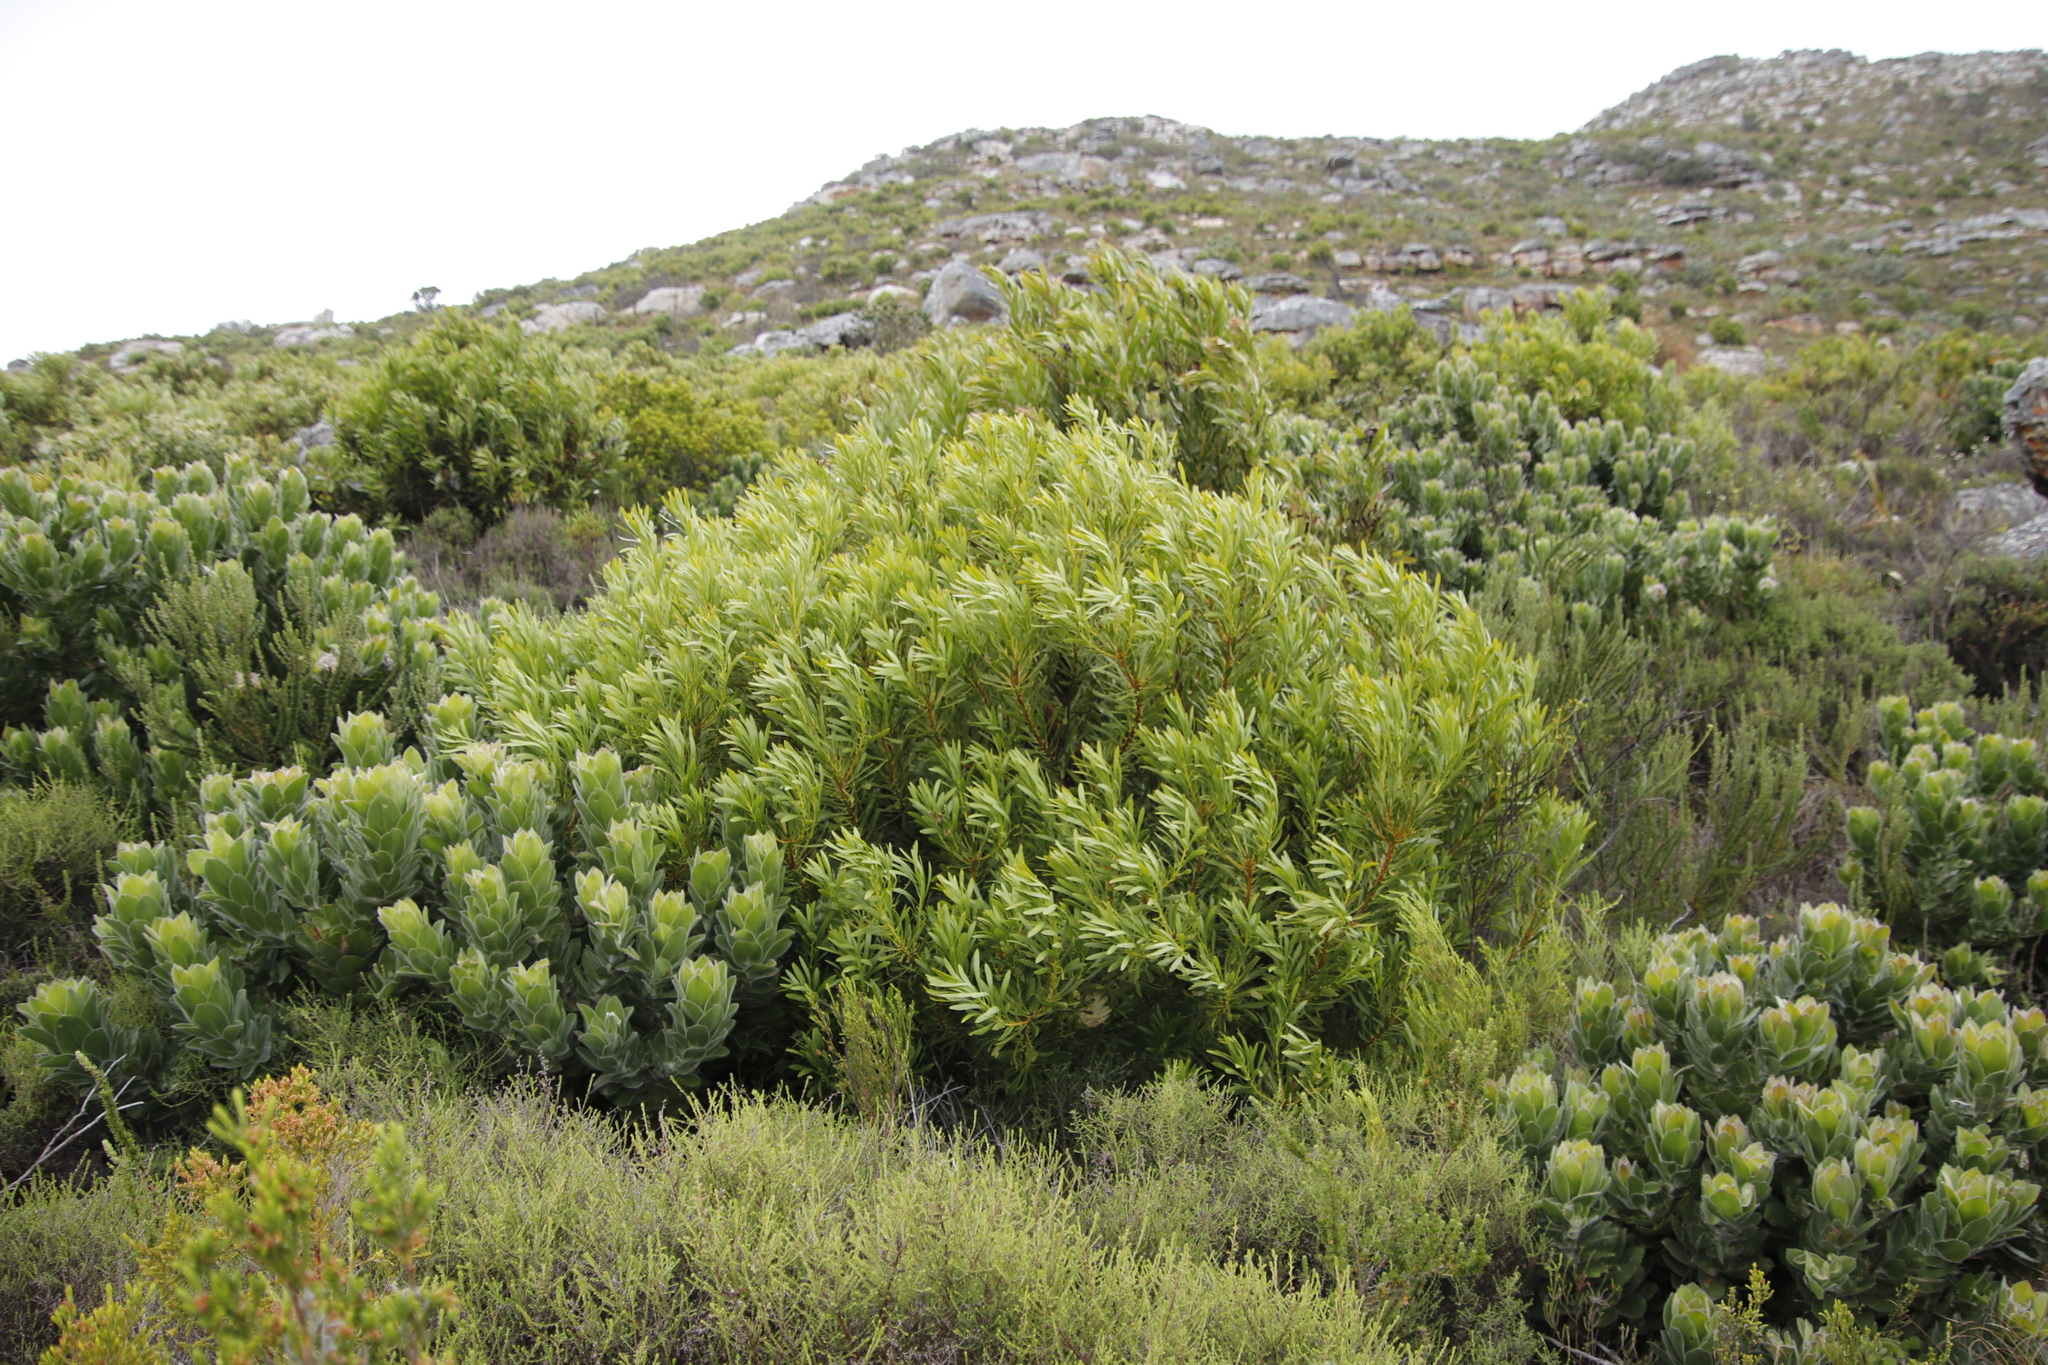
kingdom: Plantae
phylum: Tracheophyta
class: Magnoliopsida
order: Proteales
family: Proteaceae
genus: Protea
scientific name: Protea repens
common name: Sugarbush
